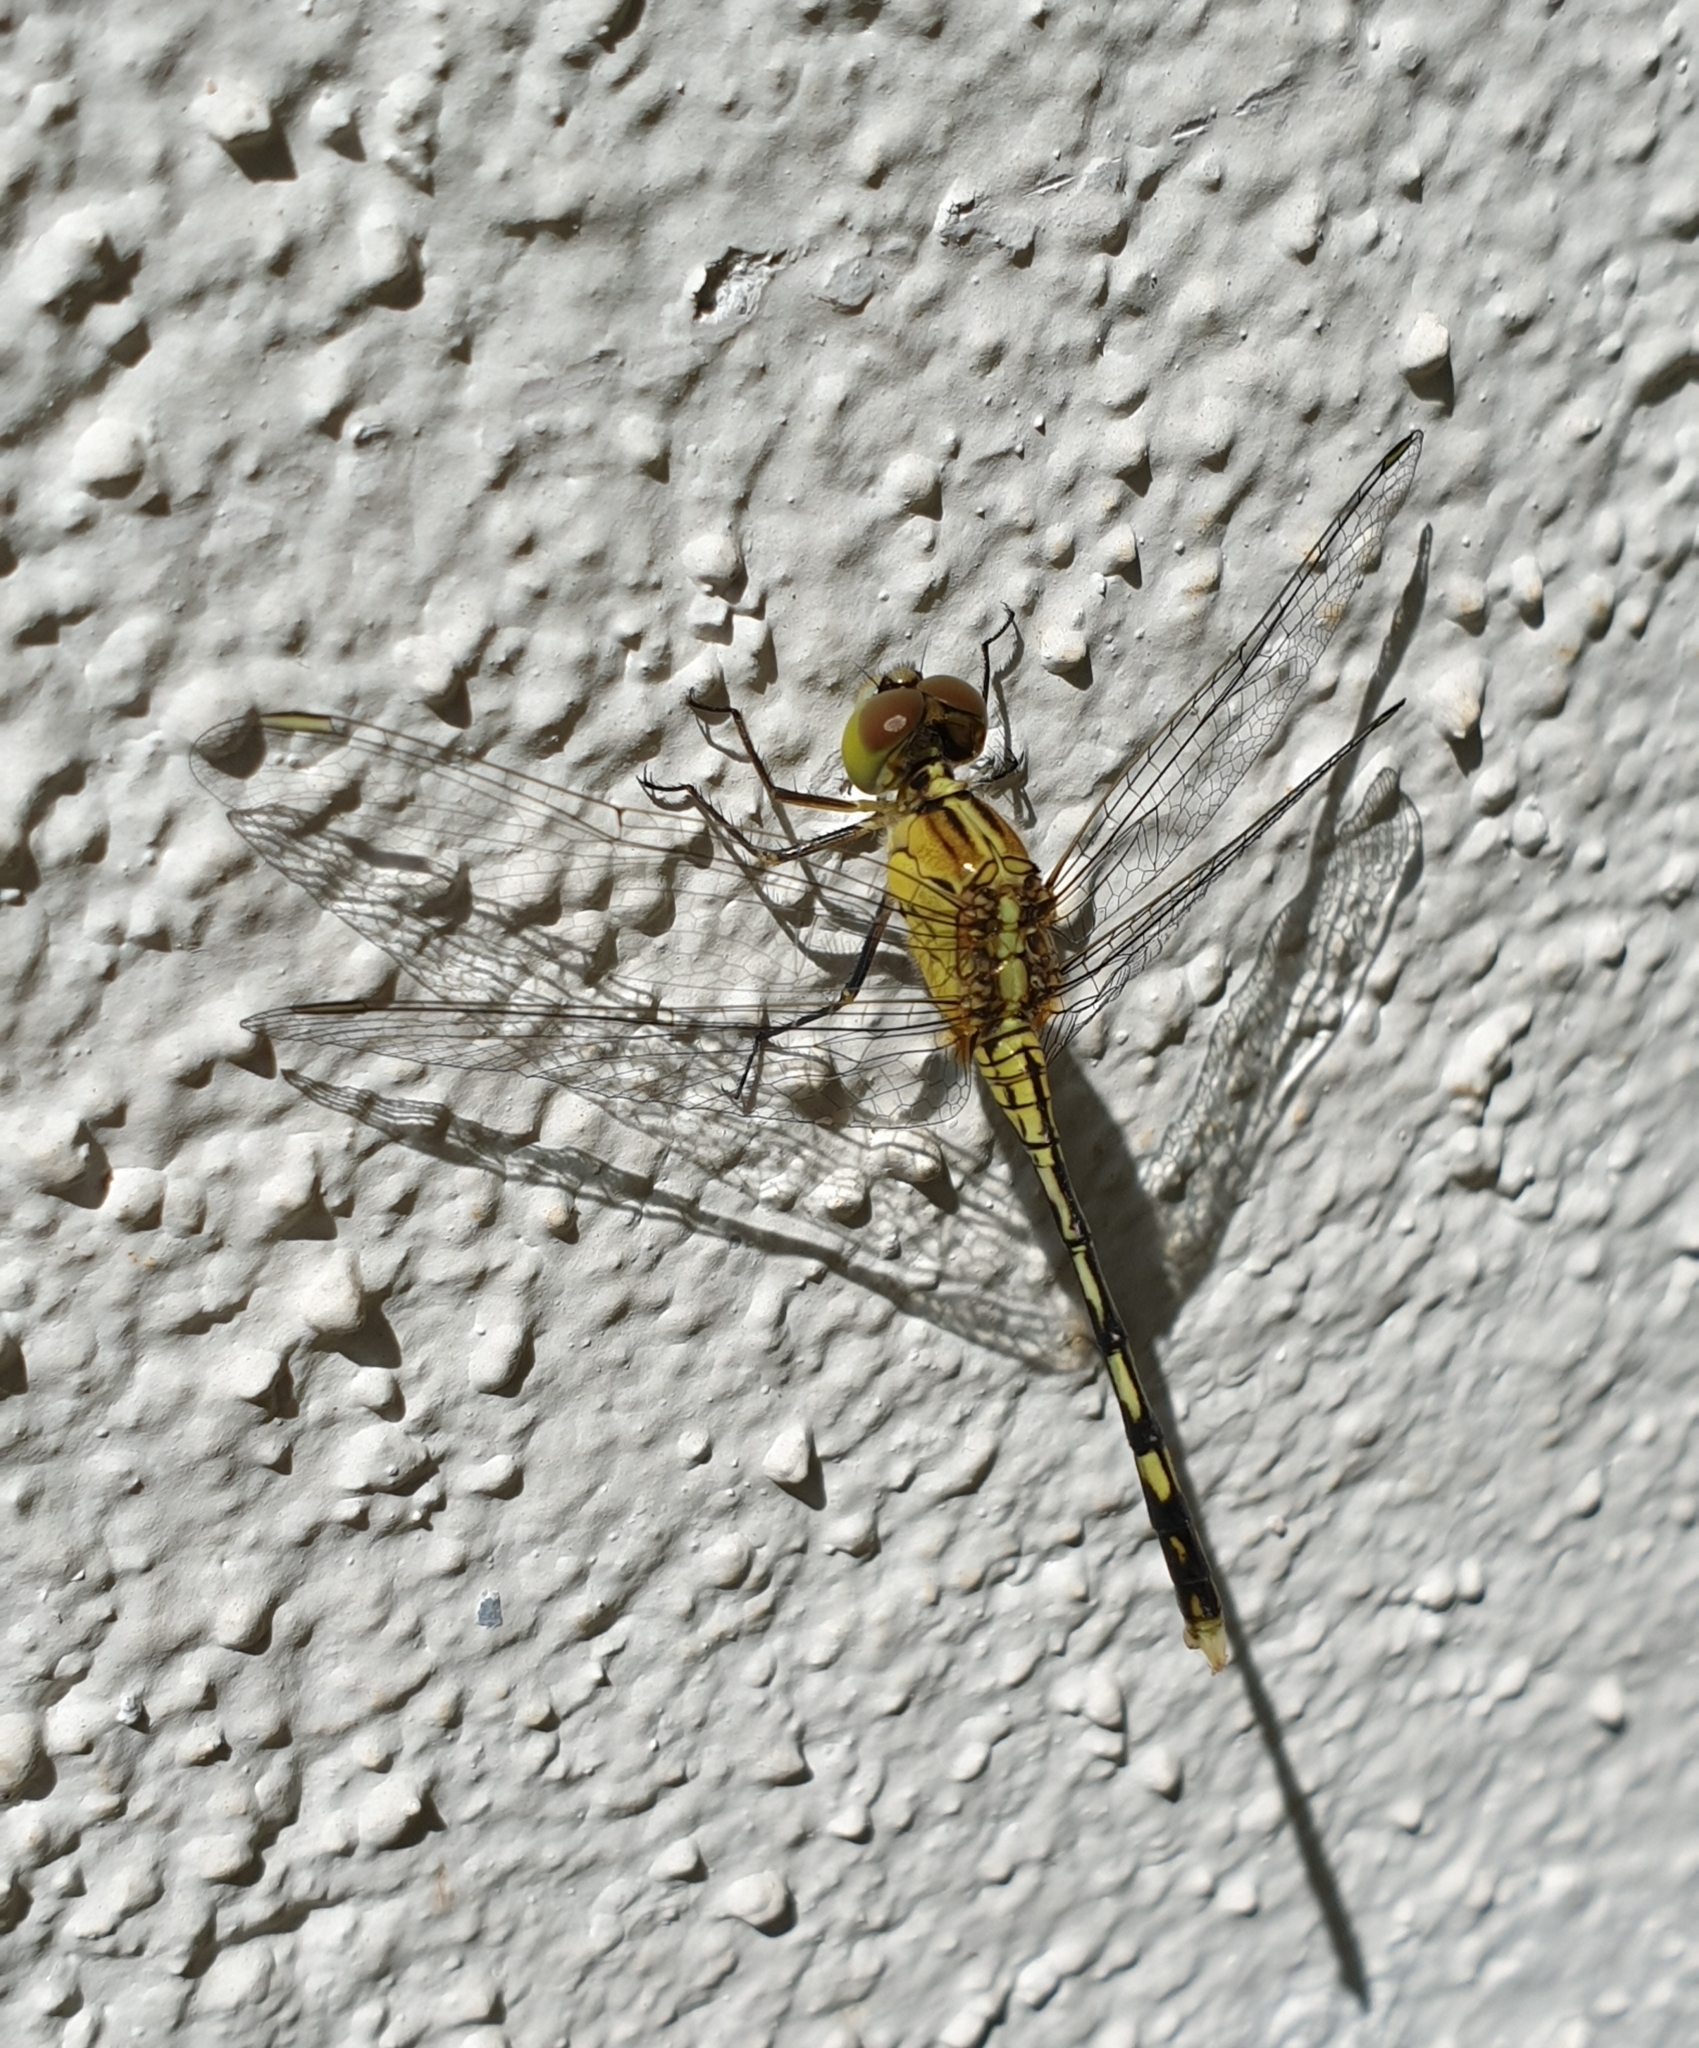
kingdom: Animalia
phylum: Arthropoda
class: Insecta
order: Odonata
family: Libellulidae
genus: Diplacodes
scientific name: Diplacodes trivialis
